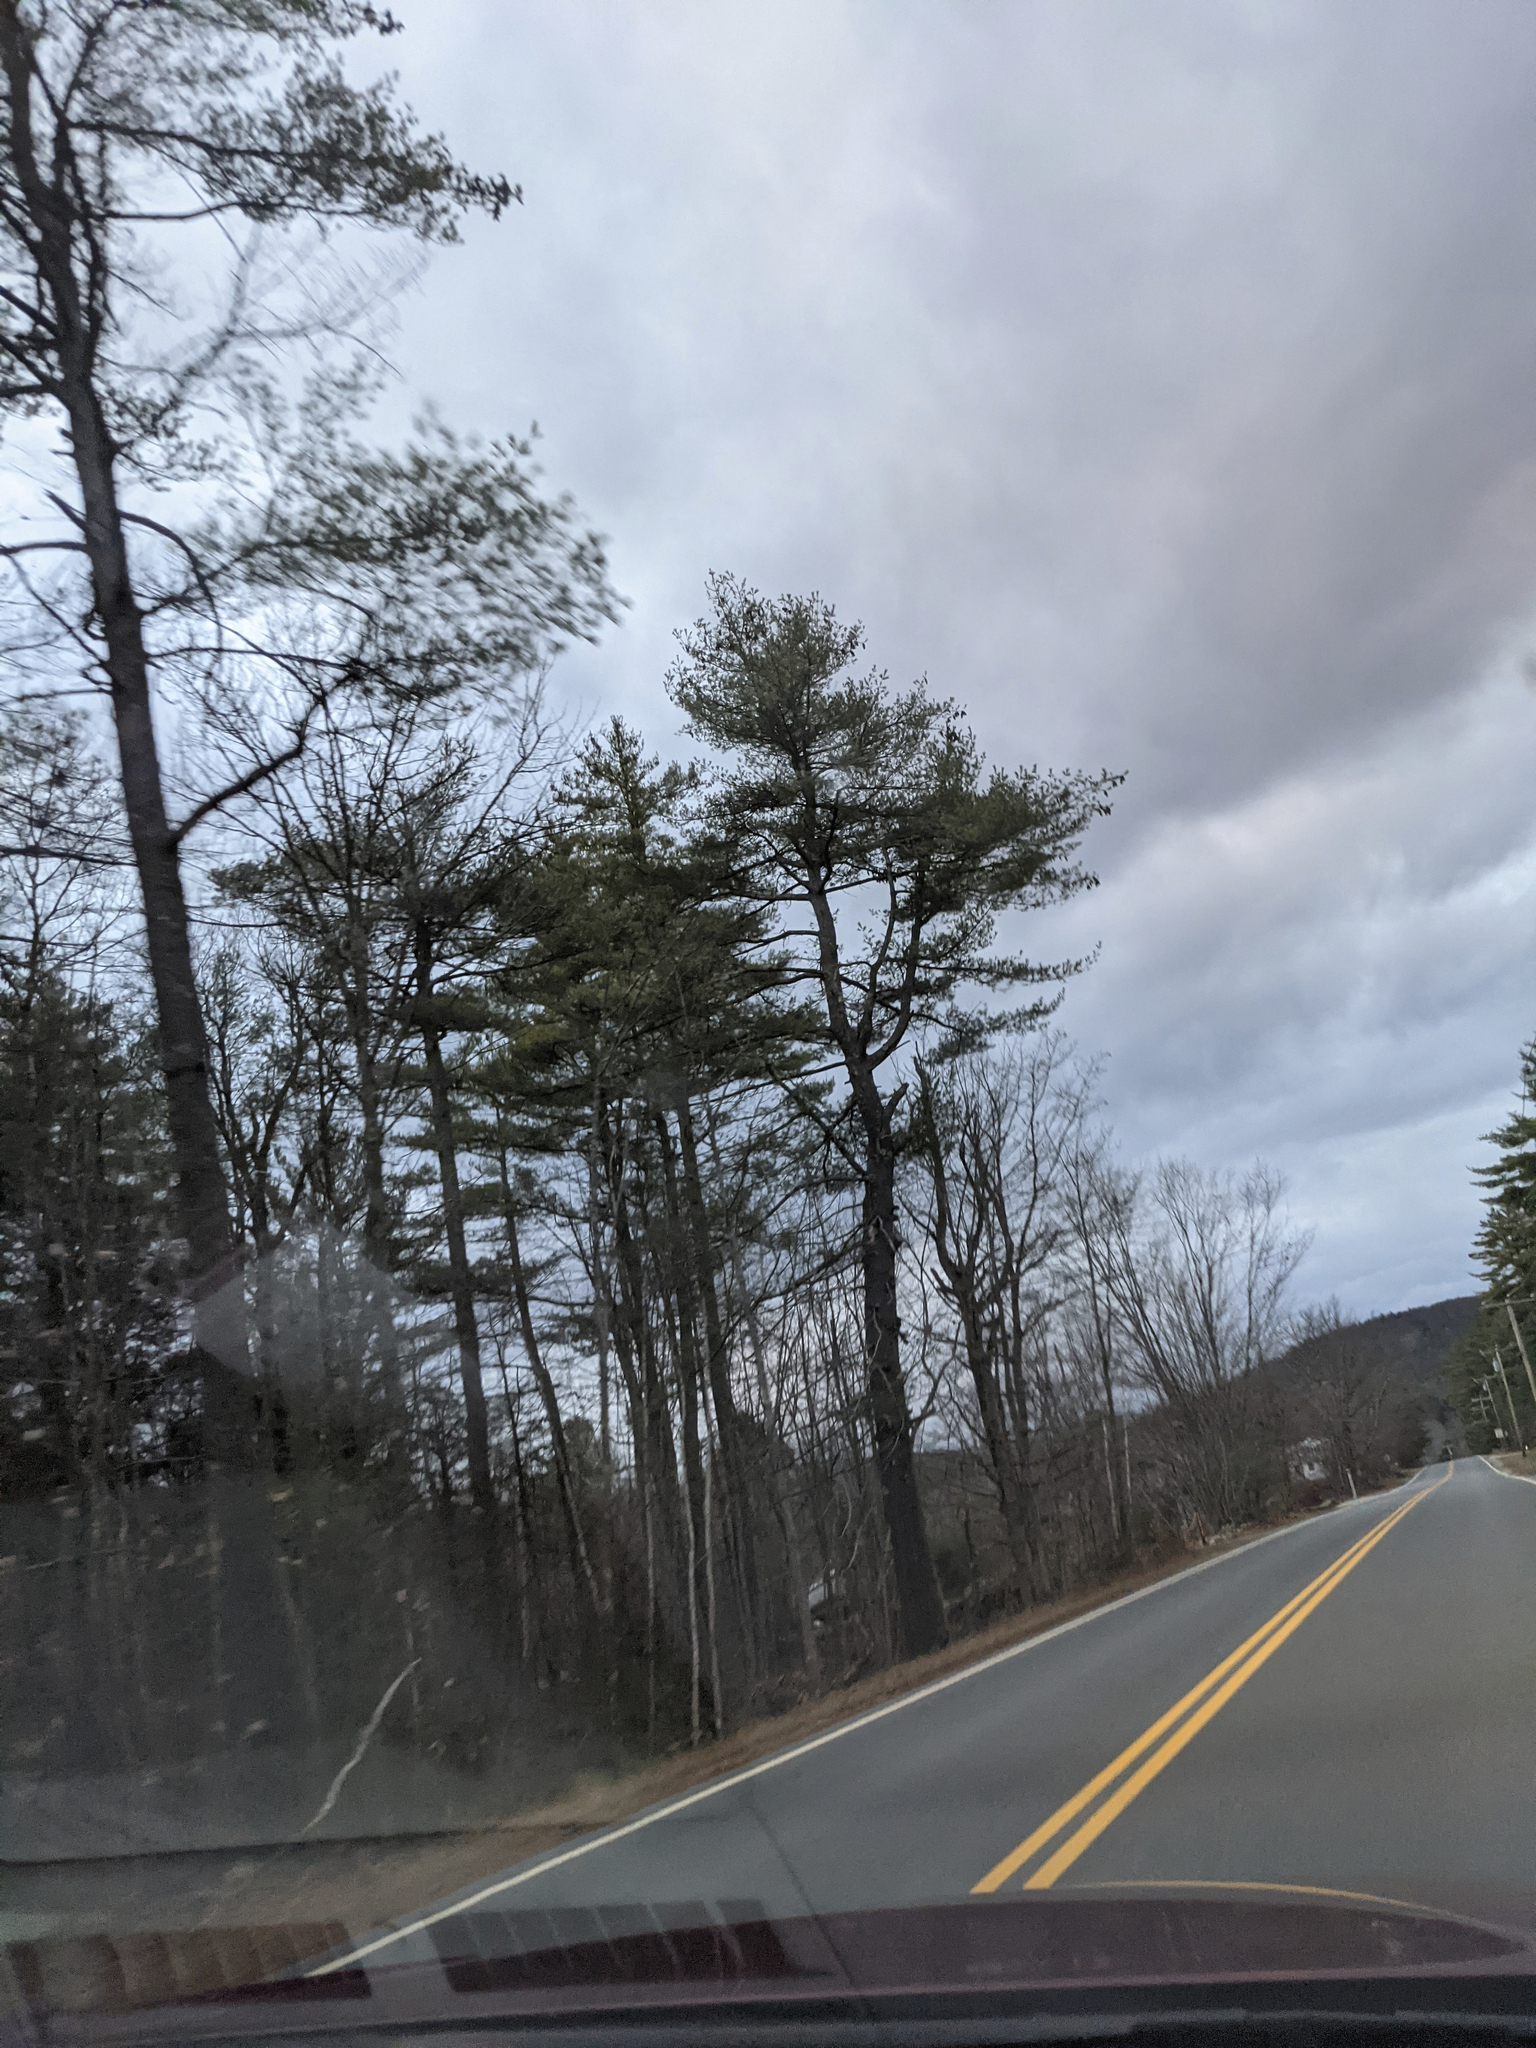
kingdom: Plantae
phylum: Tracheophyta
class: Pinopsida
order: Pinales
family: Pinaceae
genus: Pinus
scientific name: Pinus strobus
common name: Weymouth pine
